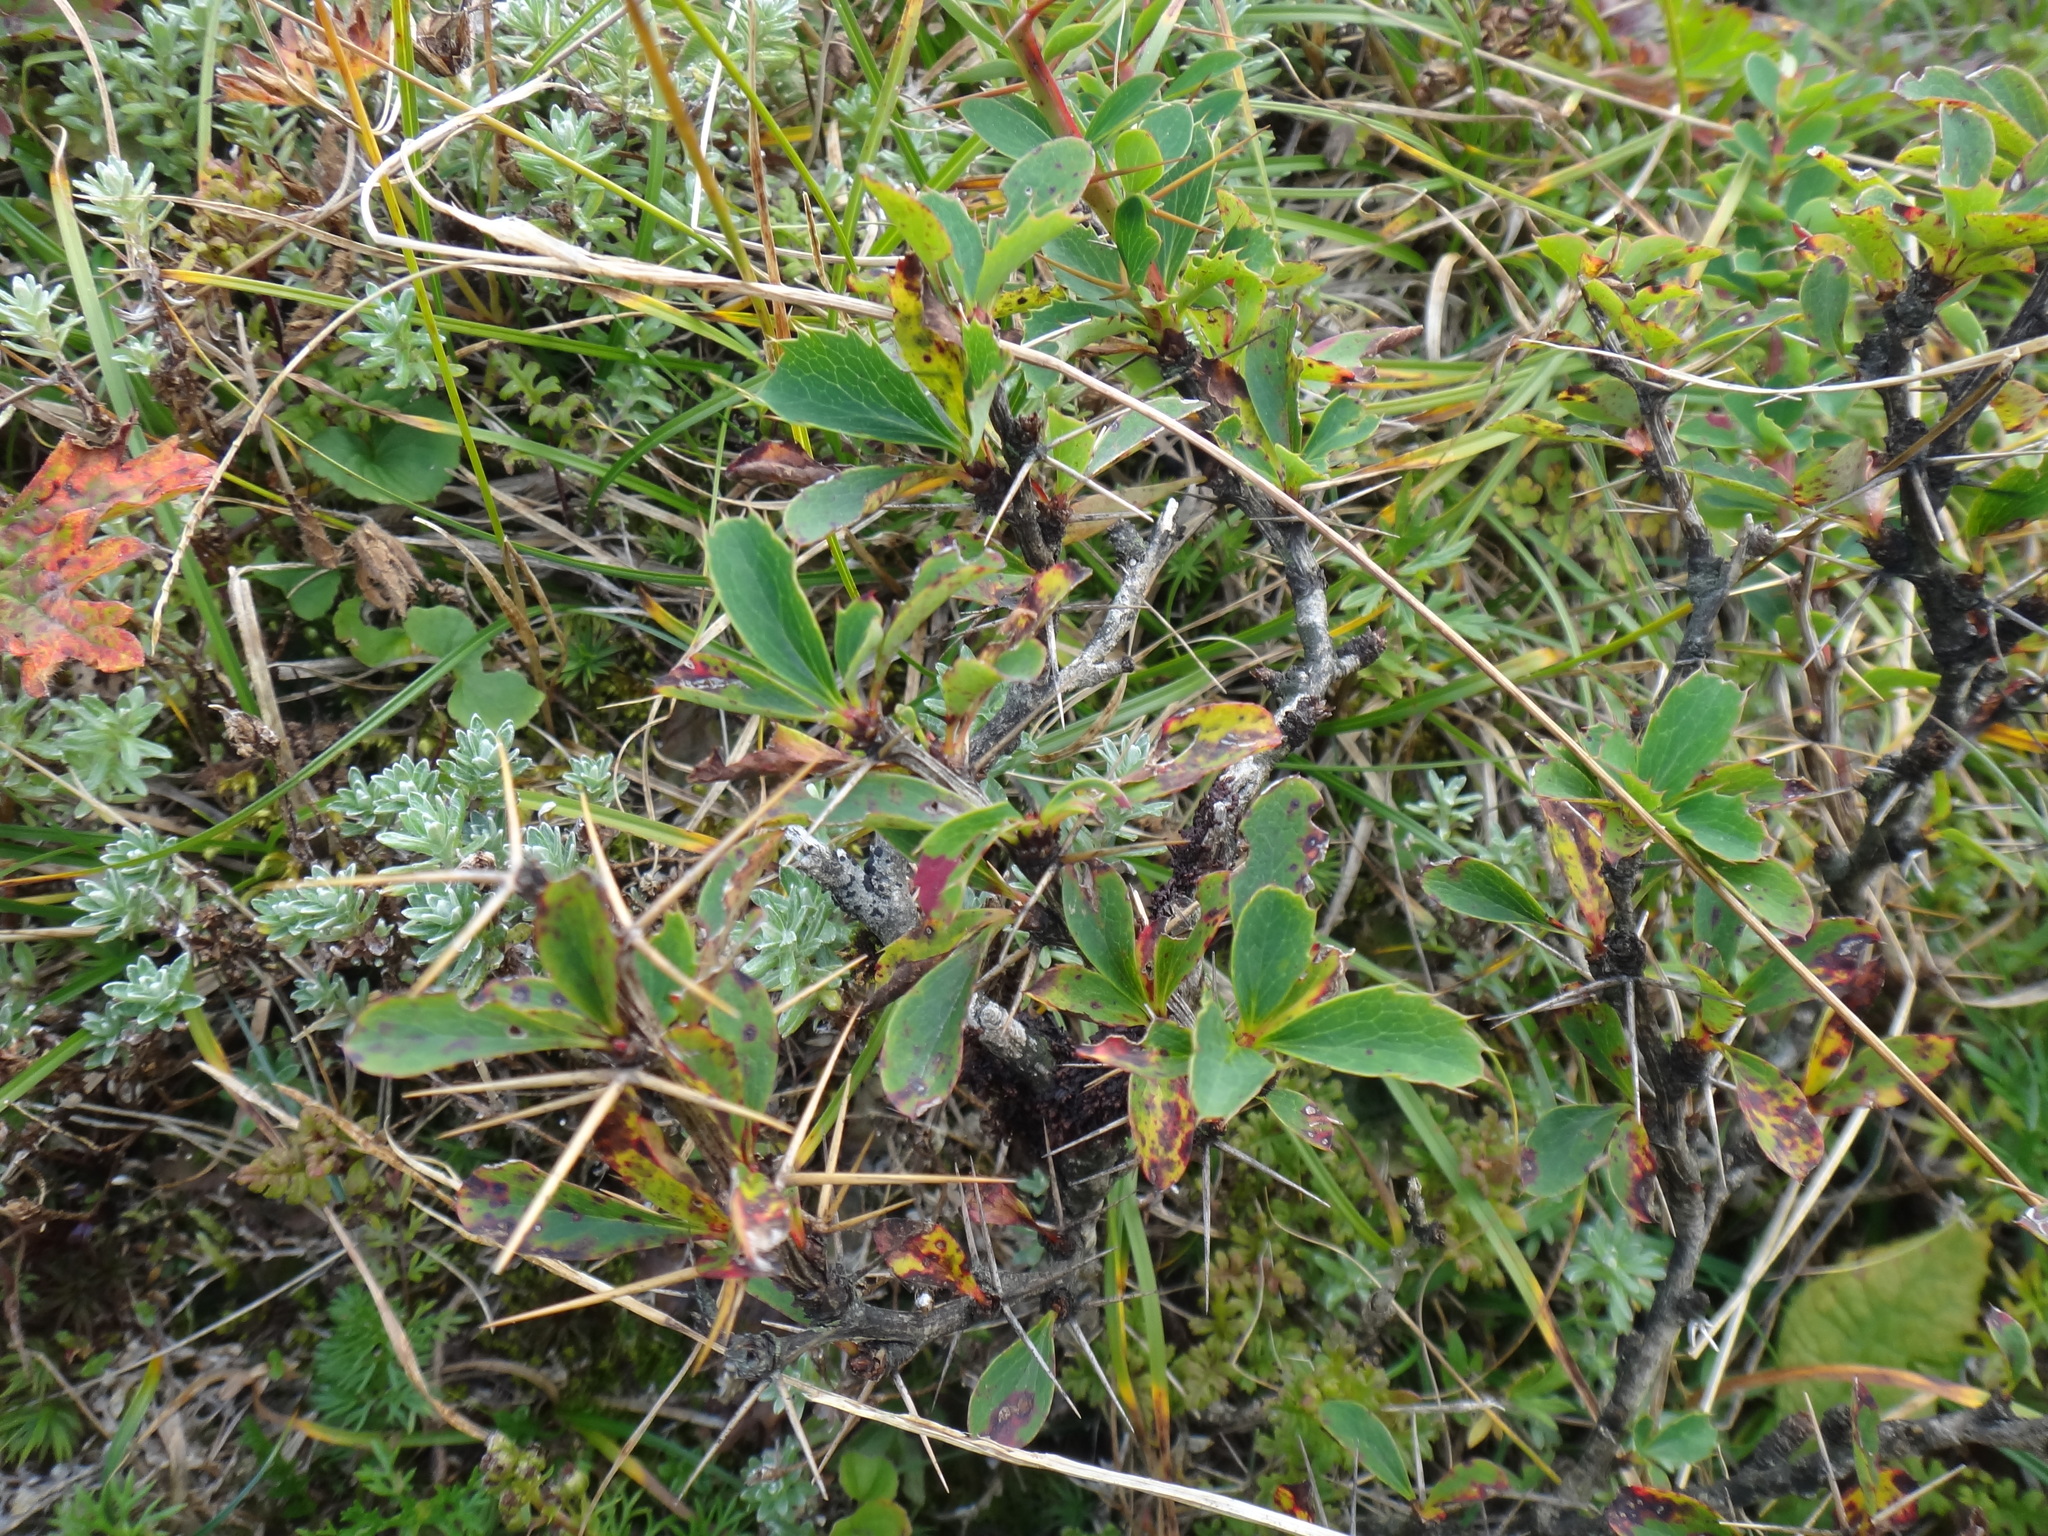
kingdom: Plantae
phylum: Tracheophyta
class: Magnoliopsida
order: Ranunculales
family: Berberidaceae
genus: Berberis
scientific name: Berberis morrisonensis
